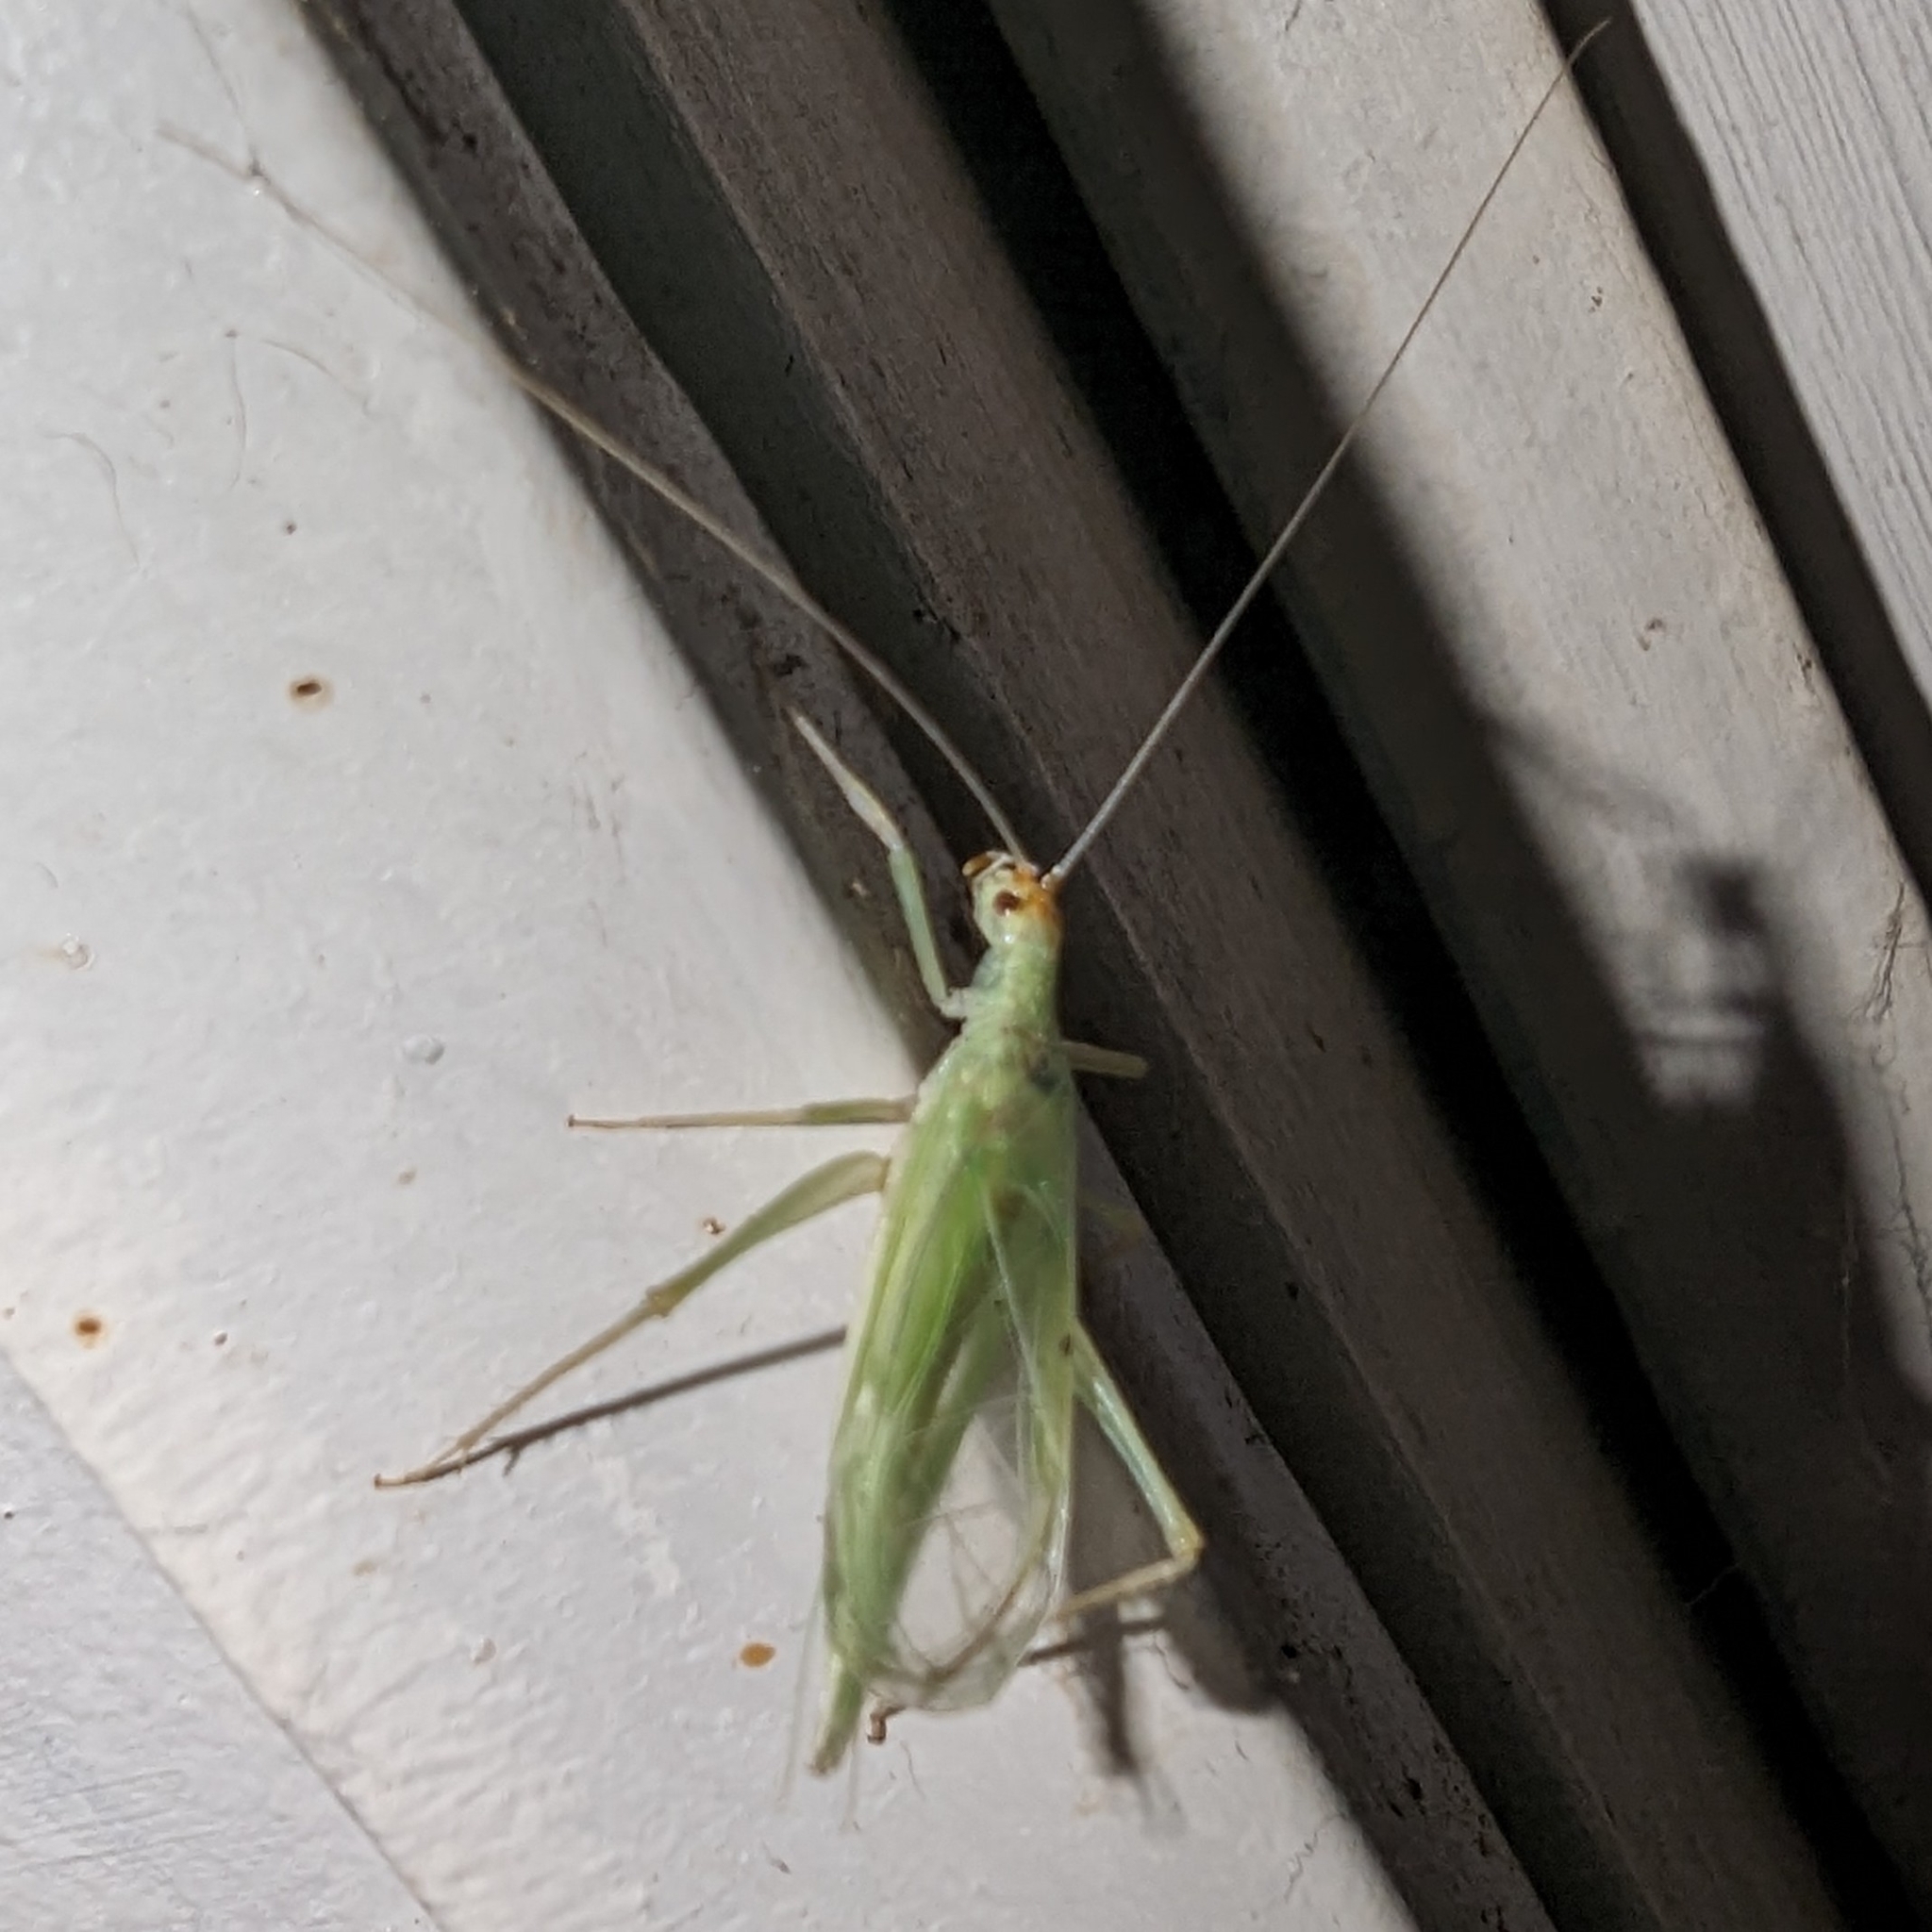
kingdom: Animalia
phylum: Arthropoda
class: Insecta
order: Orthoptera
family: Gryllidae
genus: Oecanthus
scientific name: Oecanthus rileyi
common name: Riley's tree cricket
